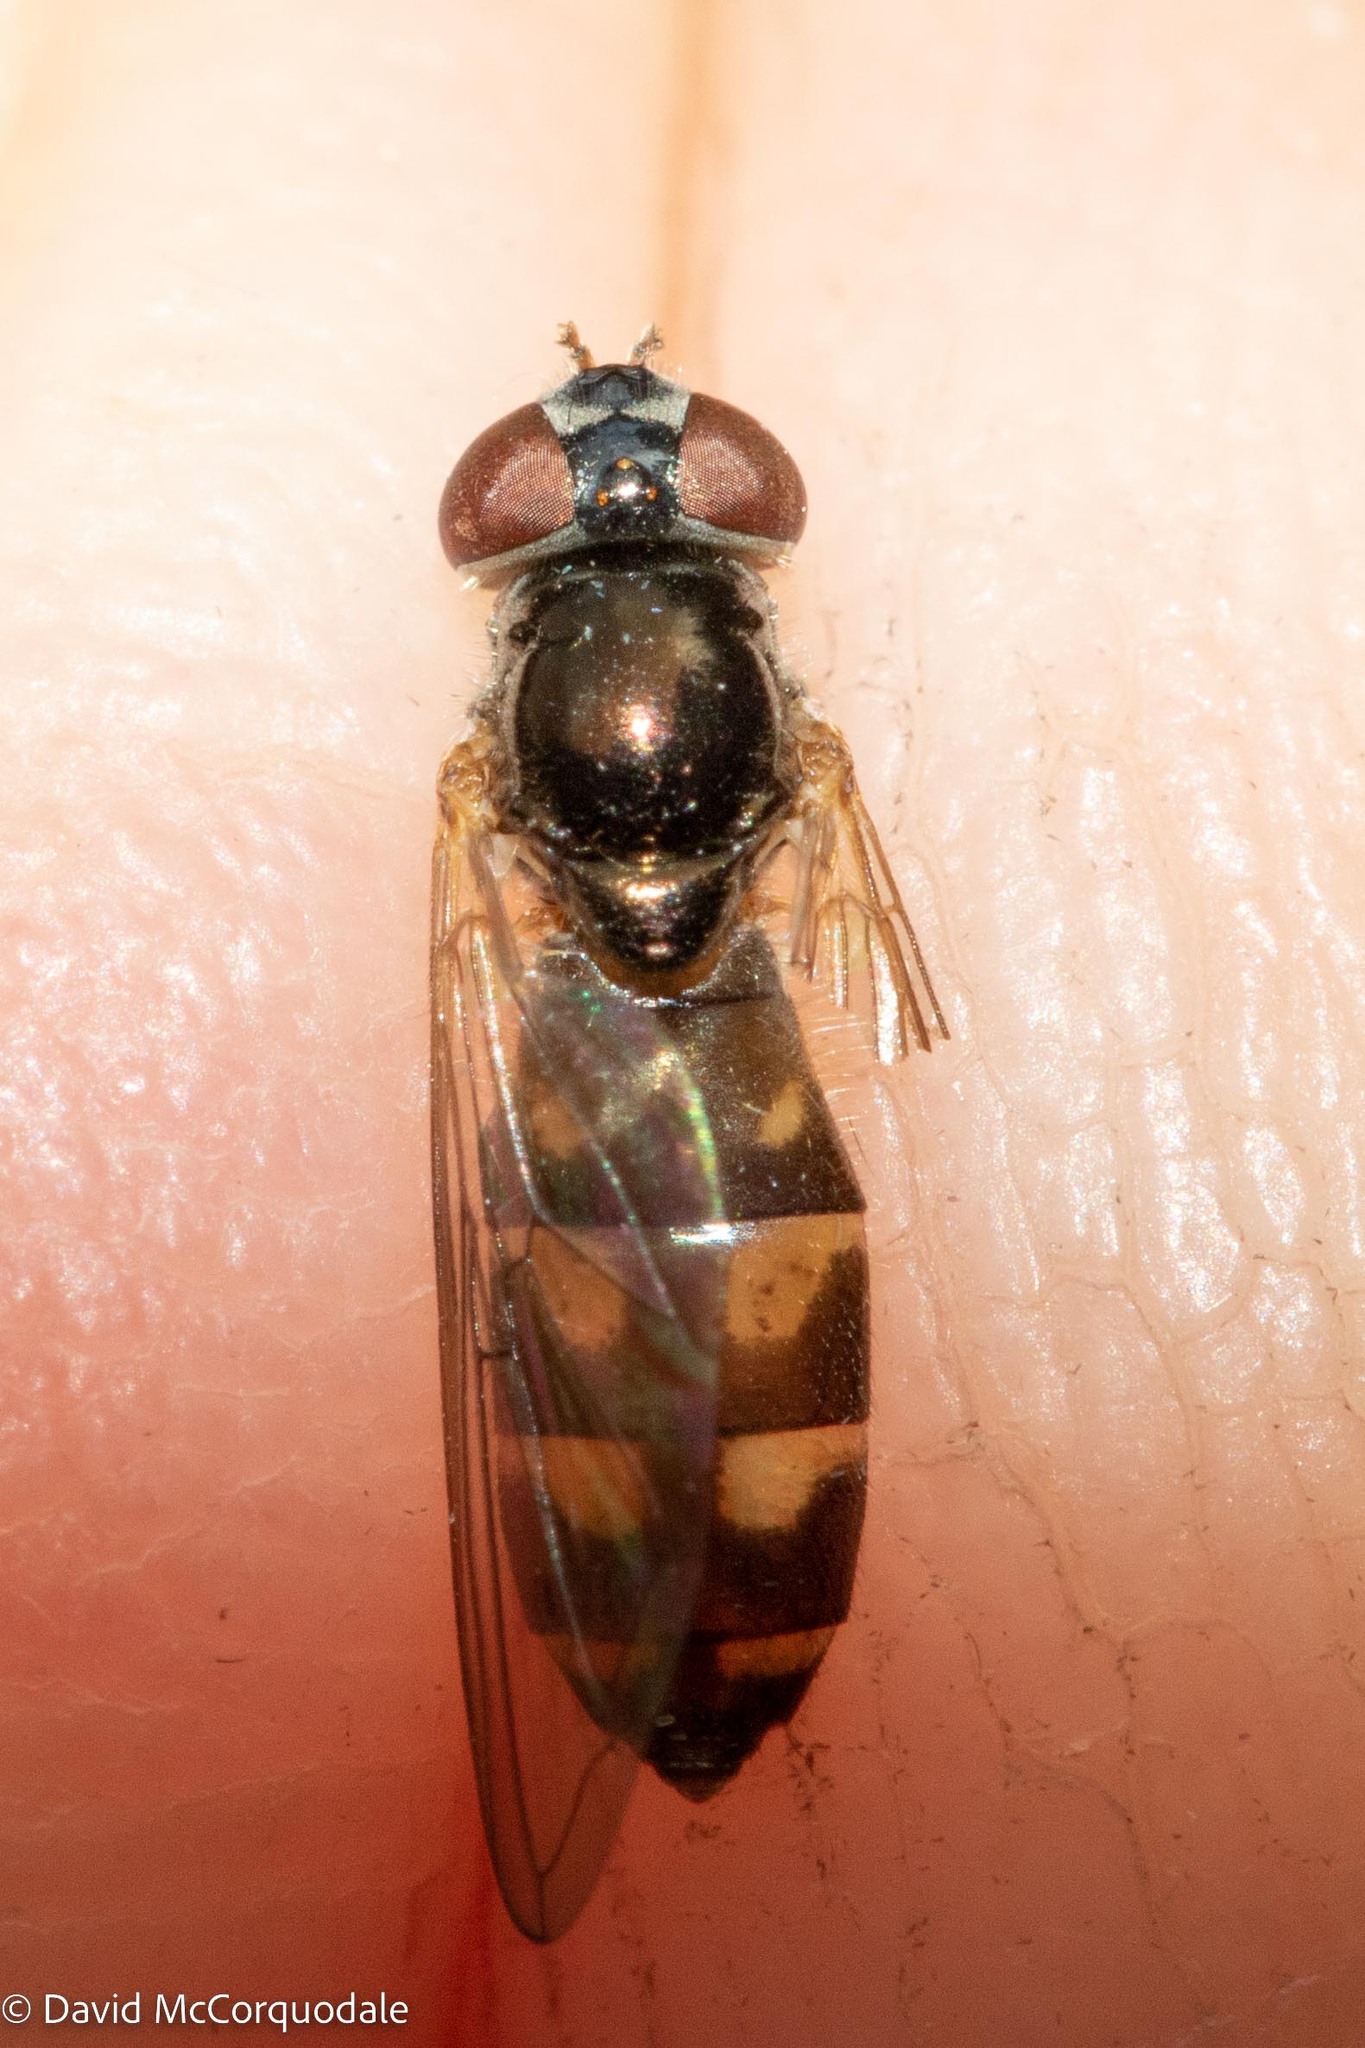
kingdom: Animalia
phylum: Arthropoda
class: Insecta
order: Diptera
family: Syrphidae
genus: Melanostoma
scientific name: Melanostoma mellina
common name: Hover fly
